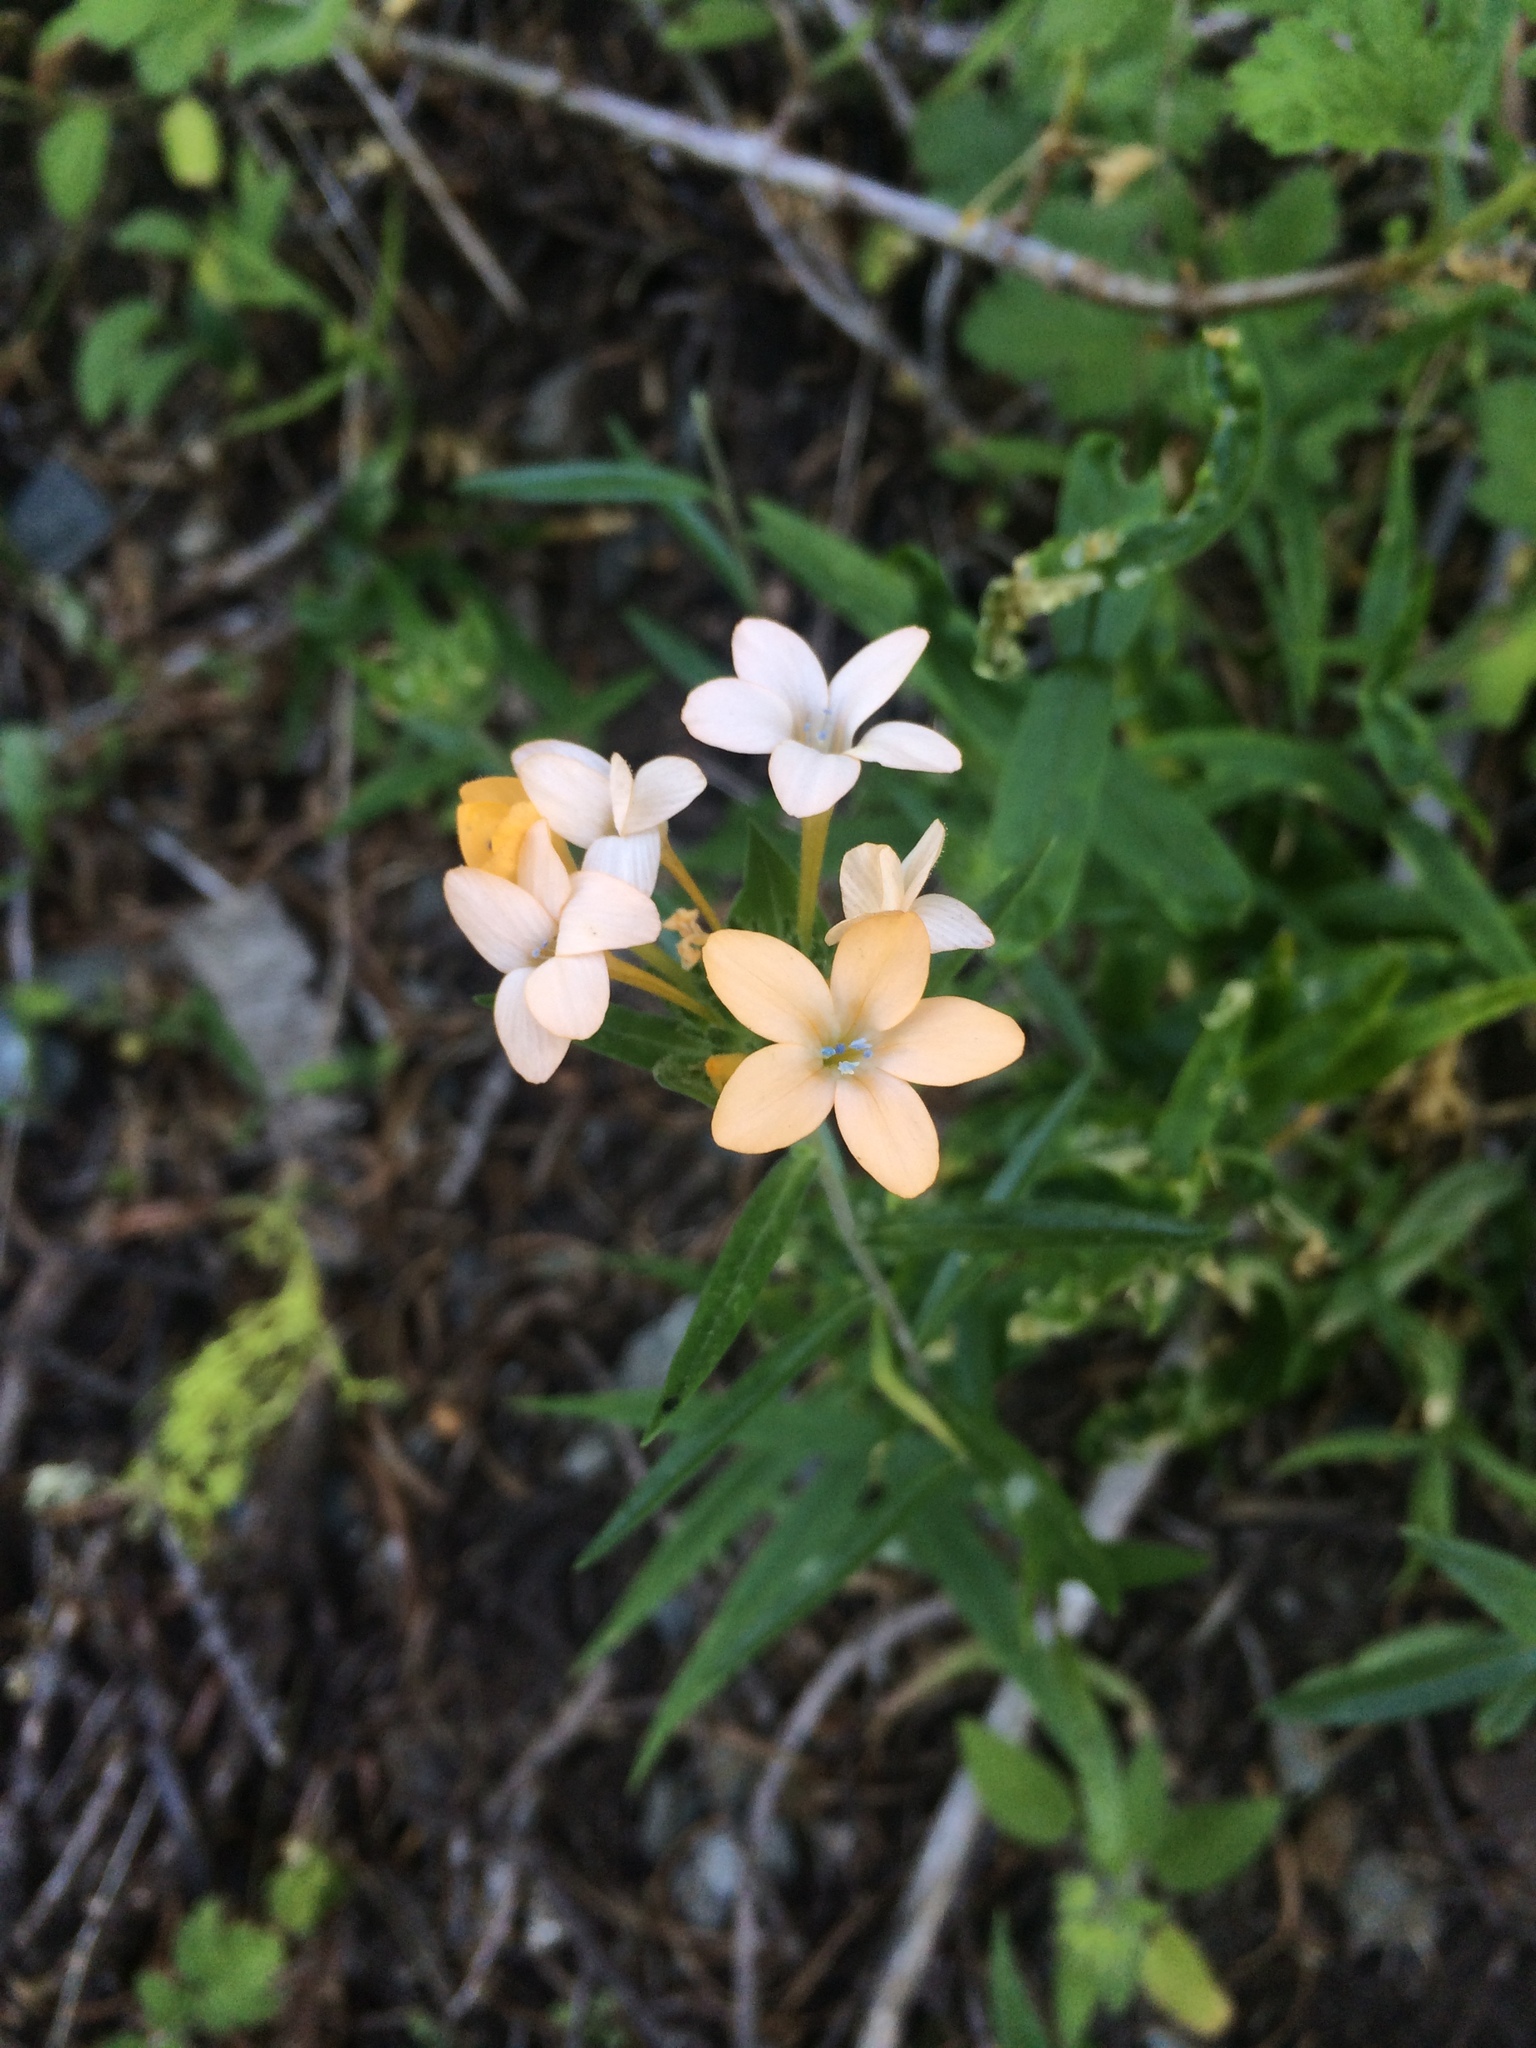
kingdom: Plantae
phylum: Tracheophyta
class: Magnoliopsida
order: Ericales
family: Polemoniaceae
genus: Collomia
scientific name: Collomia grandiflora
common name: California strawflower
